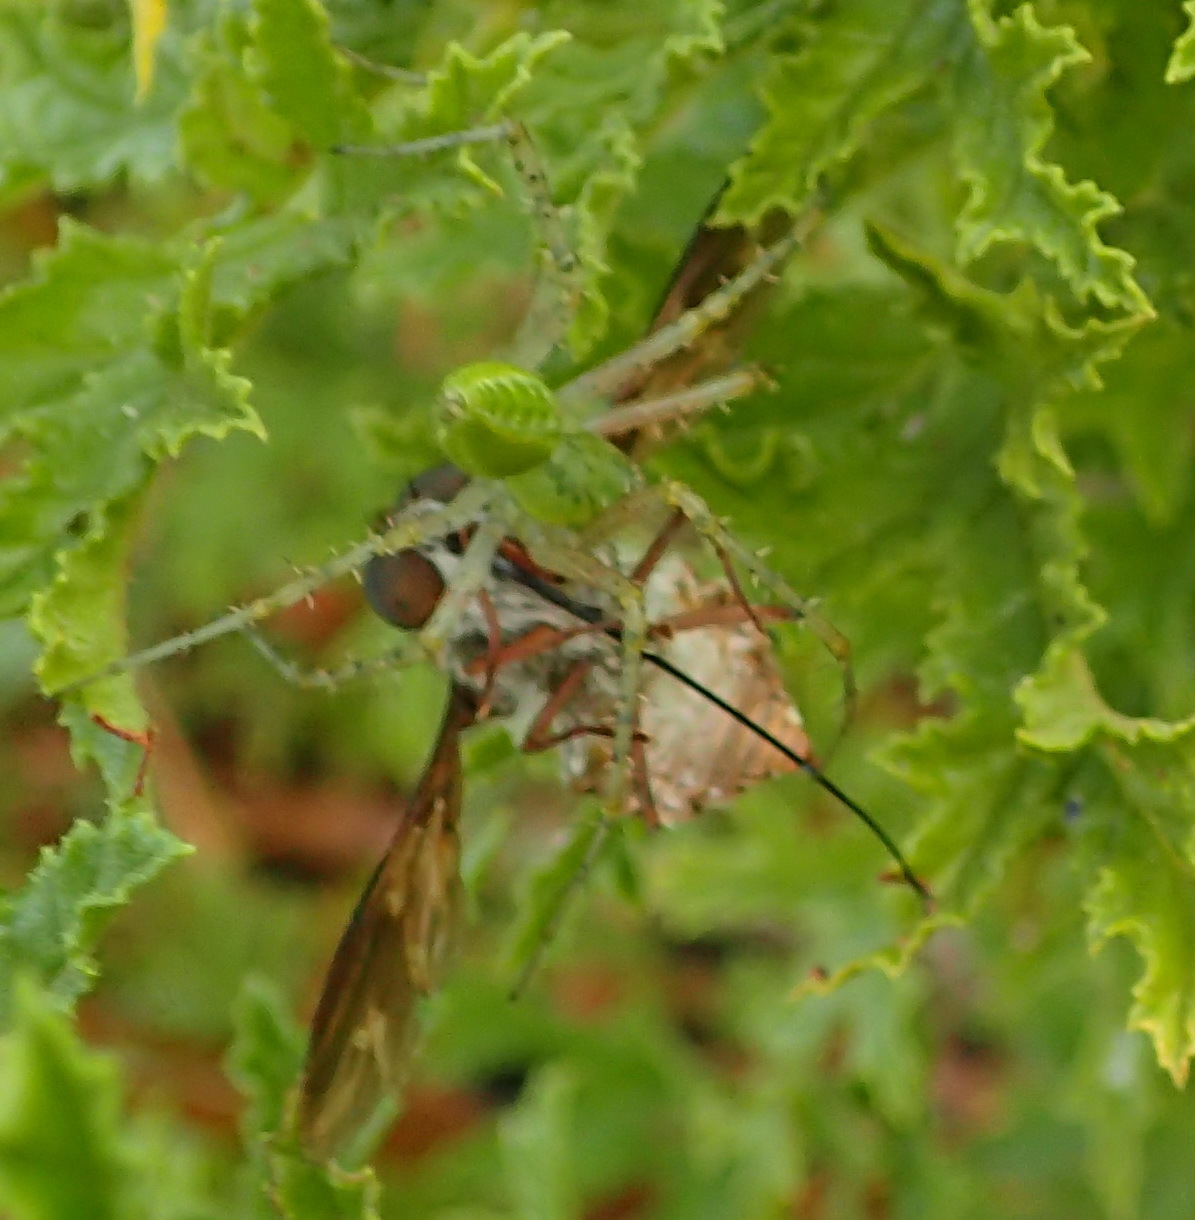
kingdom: Animalia
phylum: Arthropoda
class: Insecta
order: Diptera
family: Nemestrinidae
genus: Prosoeca
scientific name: Prosoeca ganglbaueri
